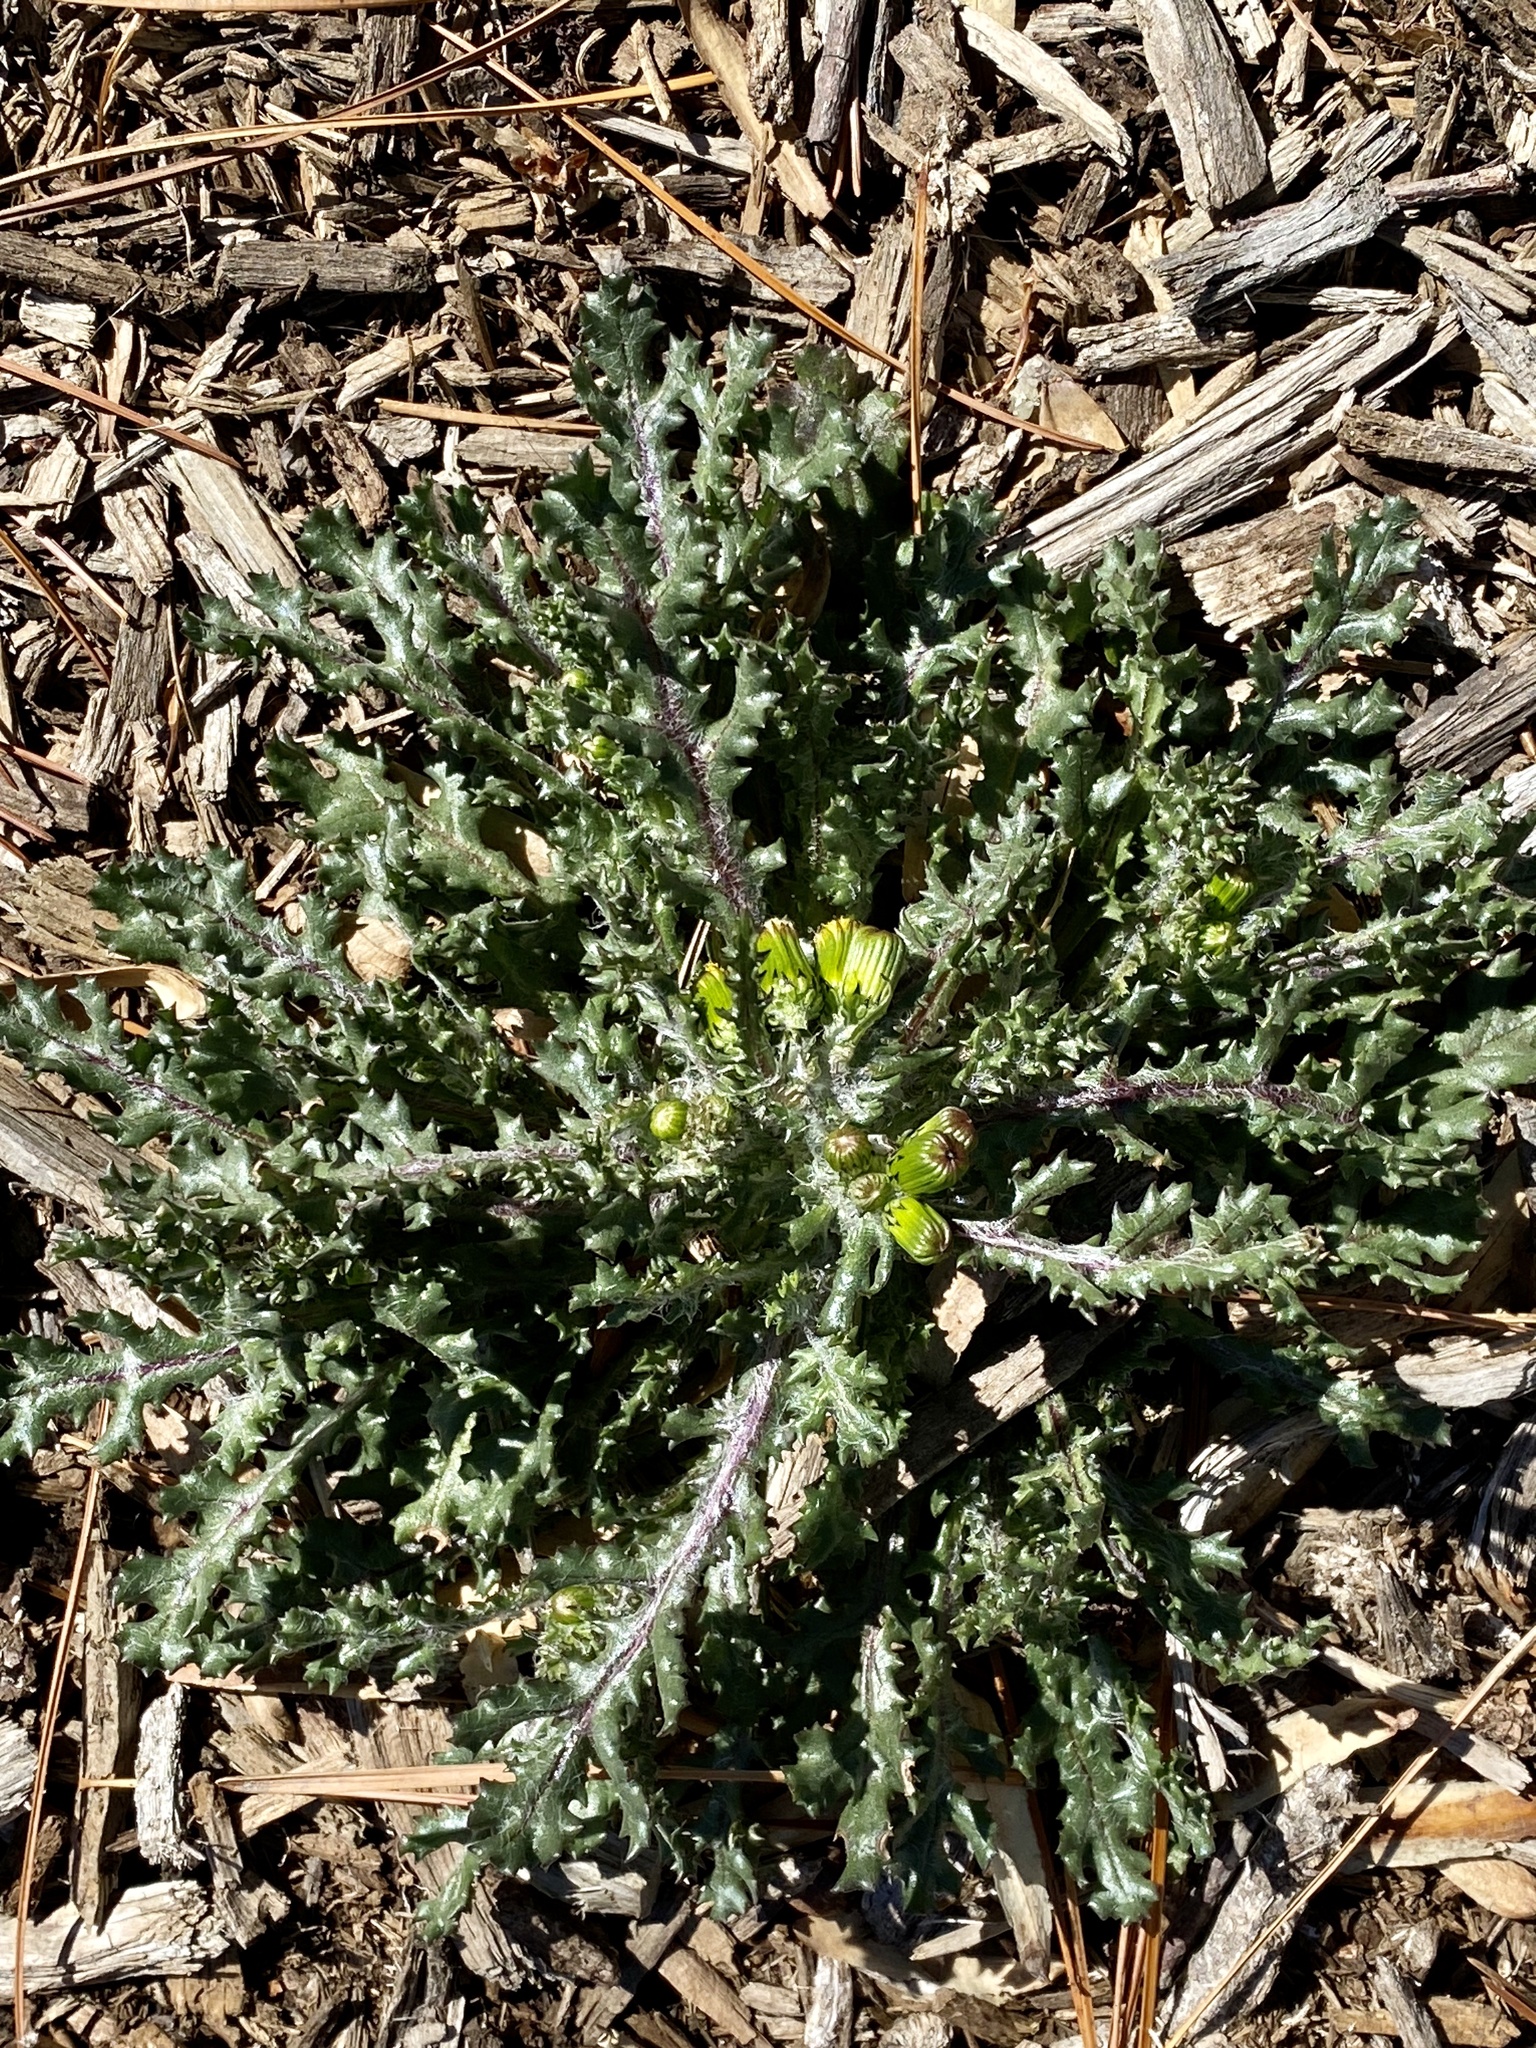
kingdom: Plantae
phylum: Tracheophyta
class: Magnoliopsida
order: Asterales
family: Asteraceae
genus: Senecio
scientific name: Senecio vulgaris
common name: Old-man-in-the-spring
